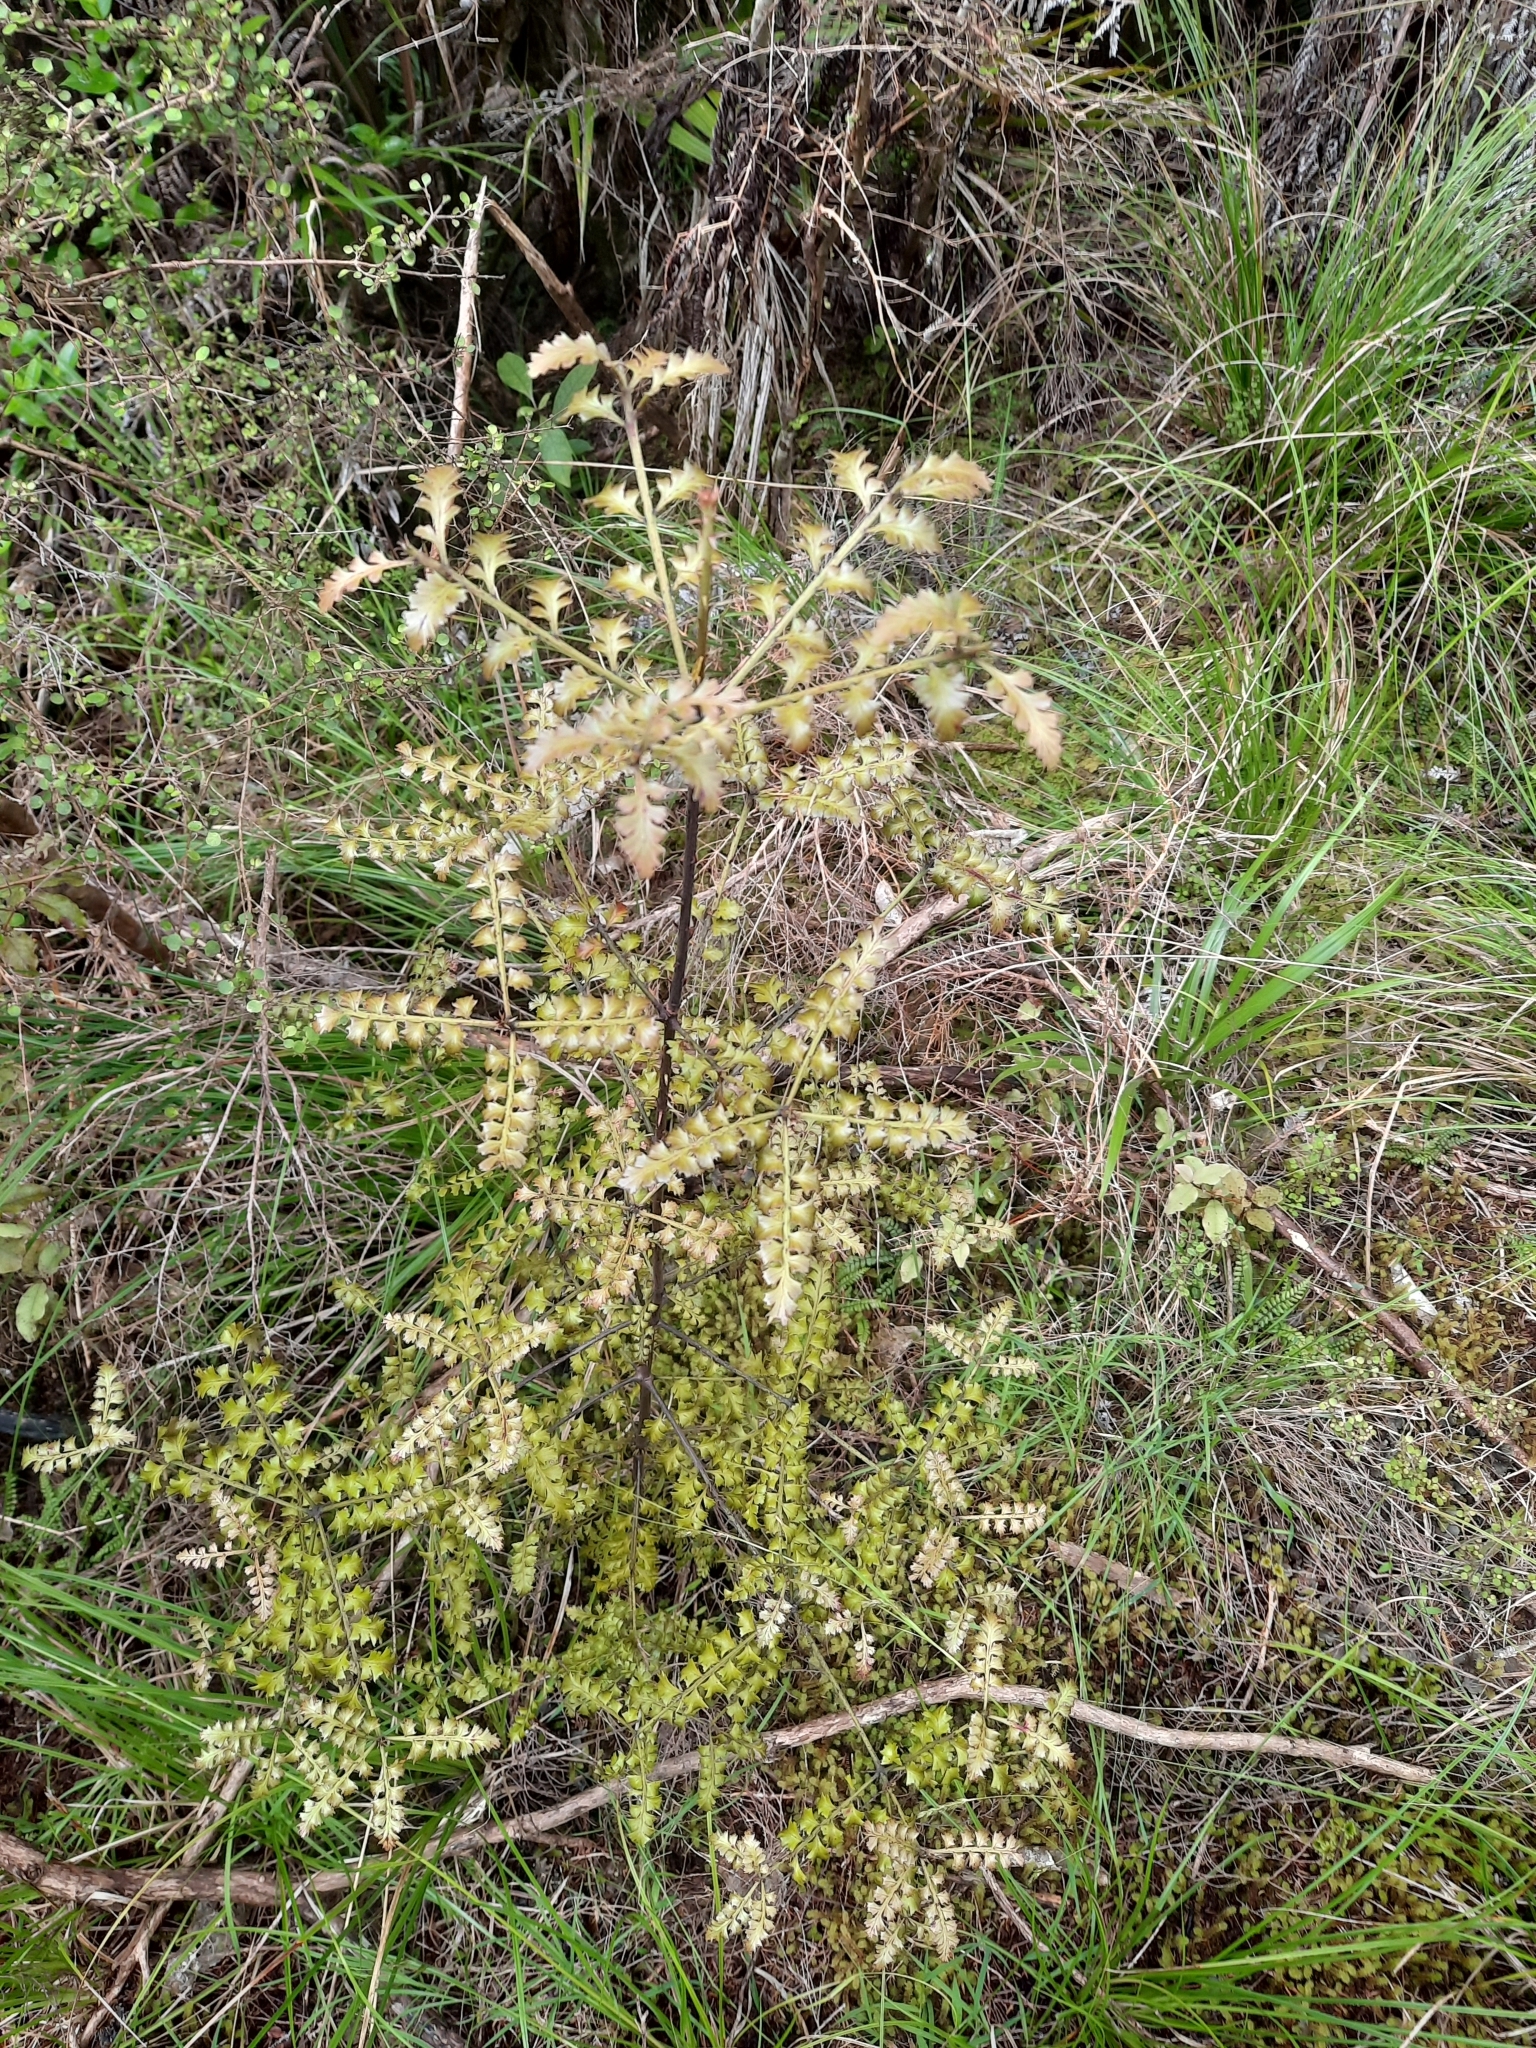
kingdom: Plantae
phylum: Tracheophyta
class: Pinopsida
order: Pinales
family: Phyllocladaceae
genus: Phyllocladus
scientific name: Phyllocladus trichomanoides
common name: Celery pine
